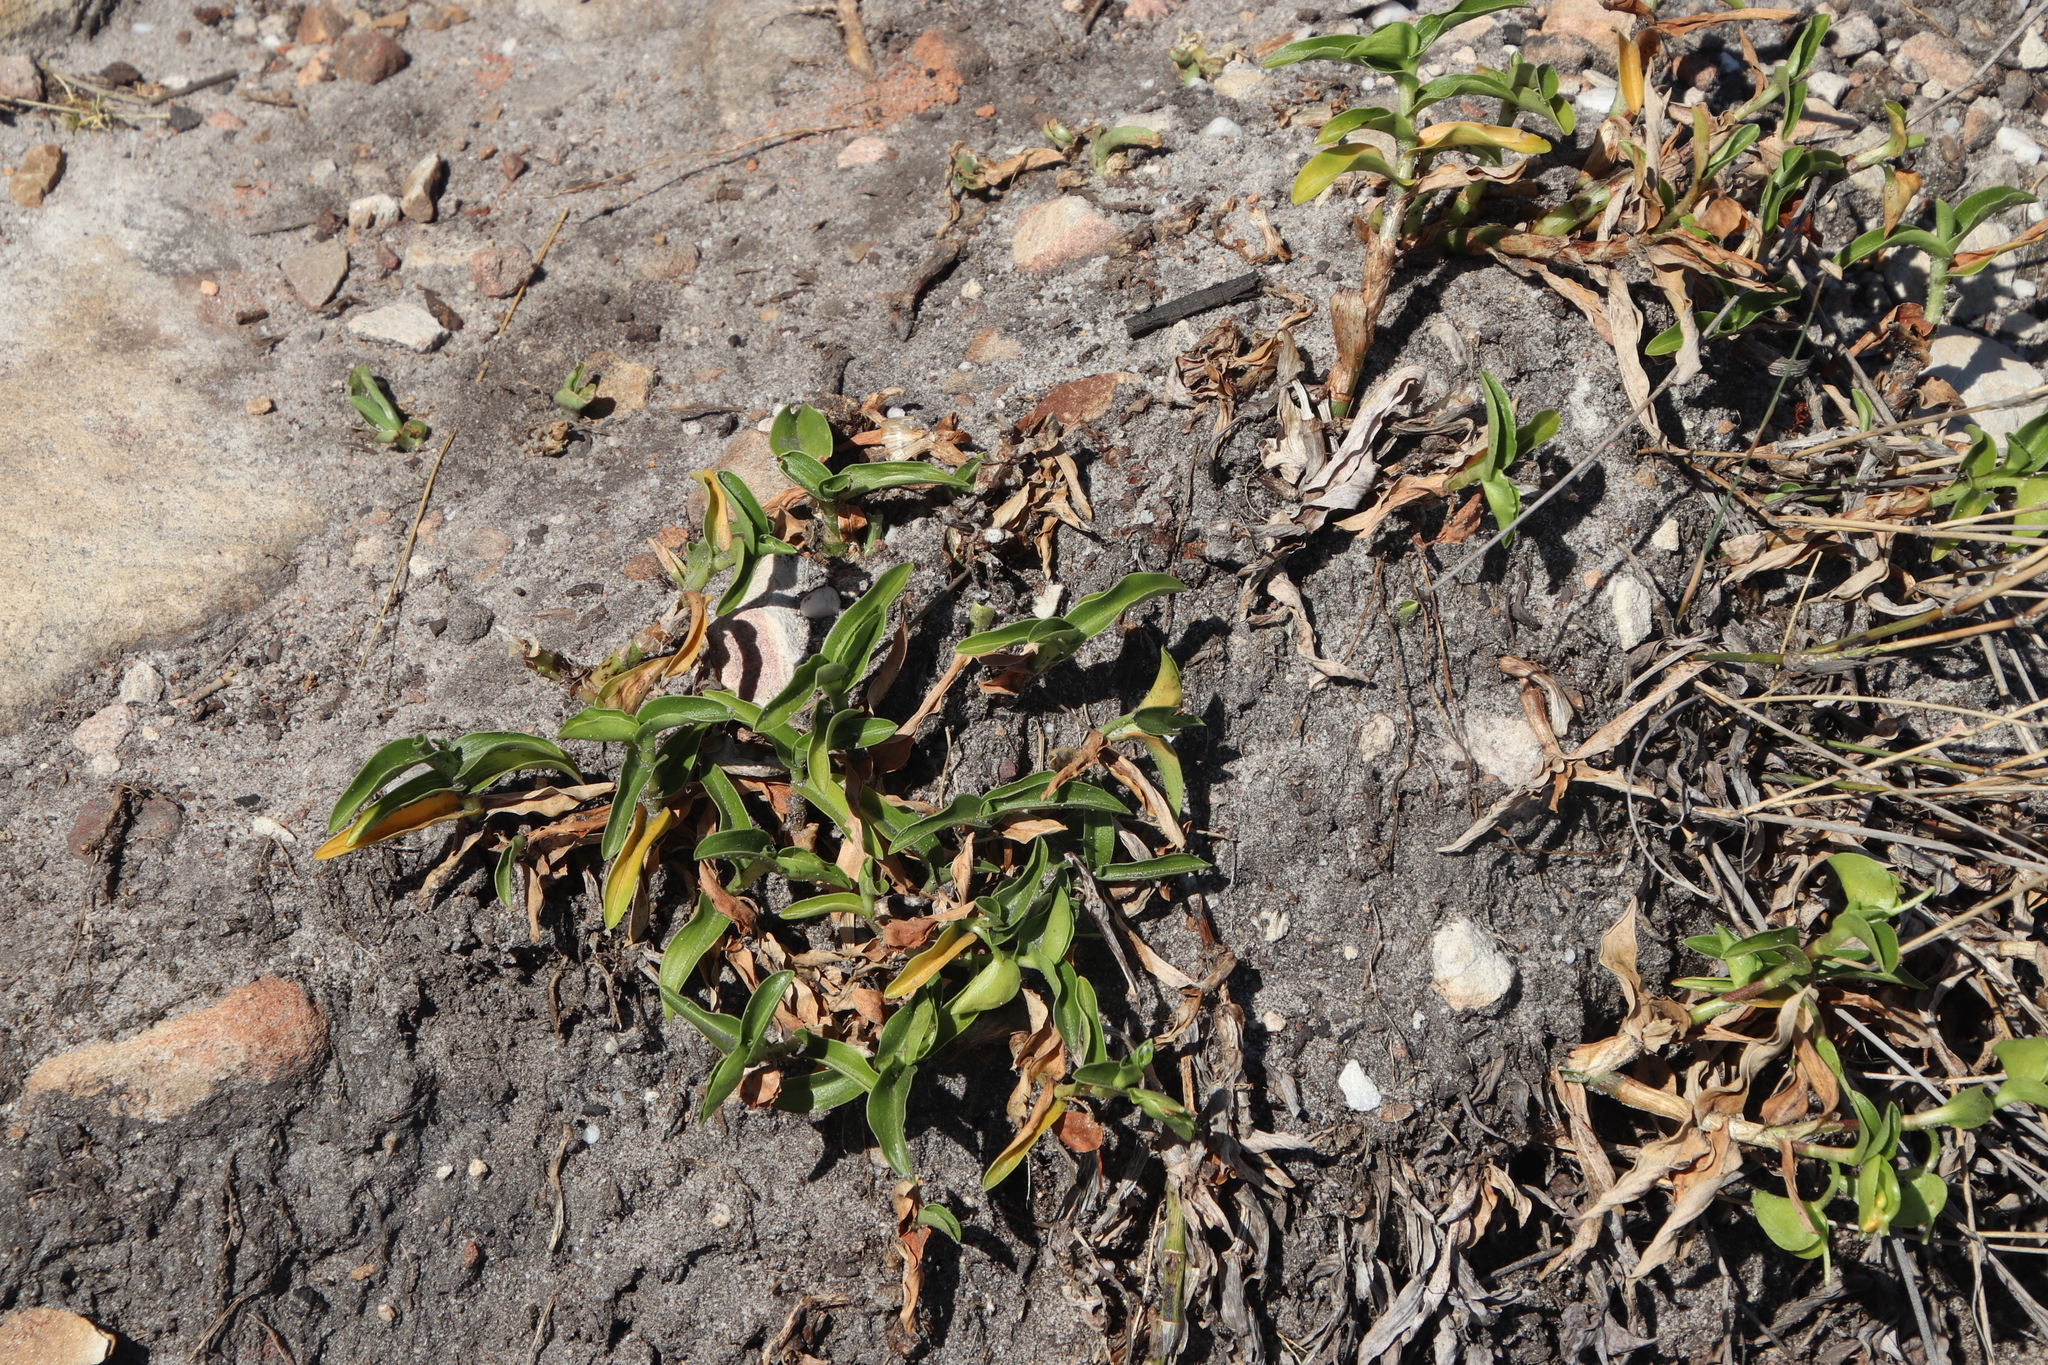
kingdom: Plantae
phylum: Tracheophyta
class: Liliopsida
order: Commelinales
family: Commelinaceae
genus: Commelina
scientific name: Commelina africana
